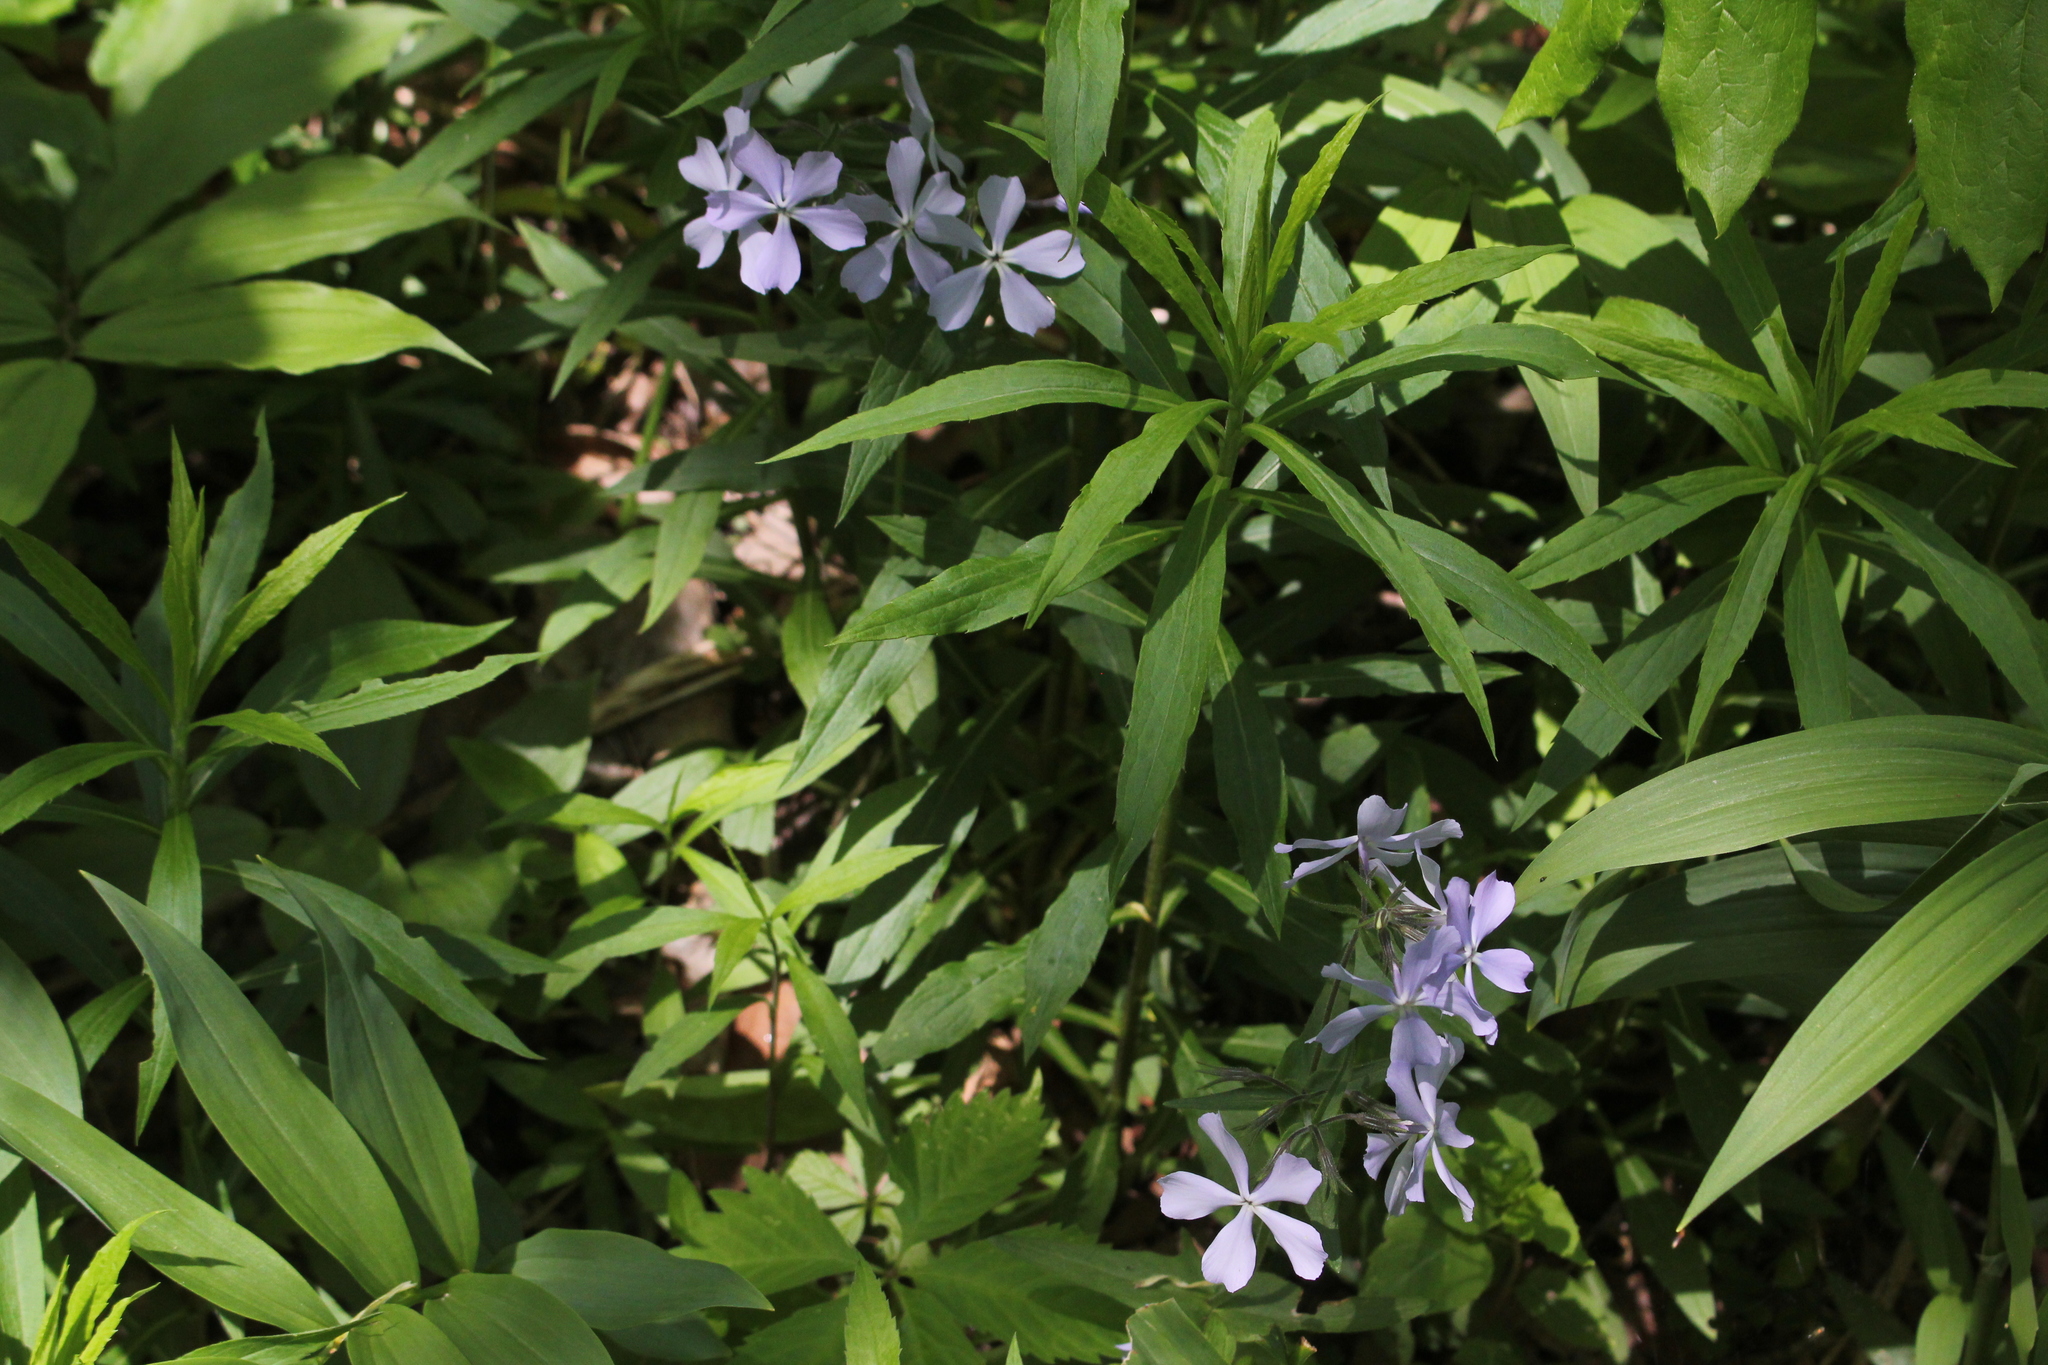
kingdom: Plantae
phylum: Tracheophyta
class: Magnoliopsida
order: Ericales
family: Polemoniaceae
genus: Phlox
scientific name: Phlox divaricata
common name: Blue phlox
